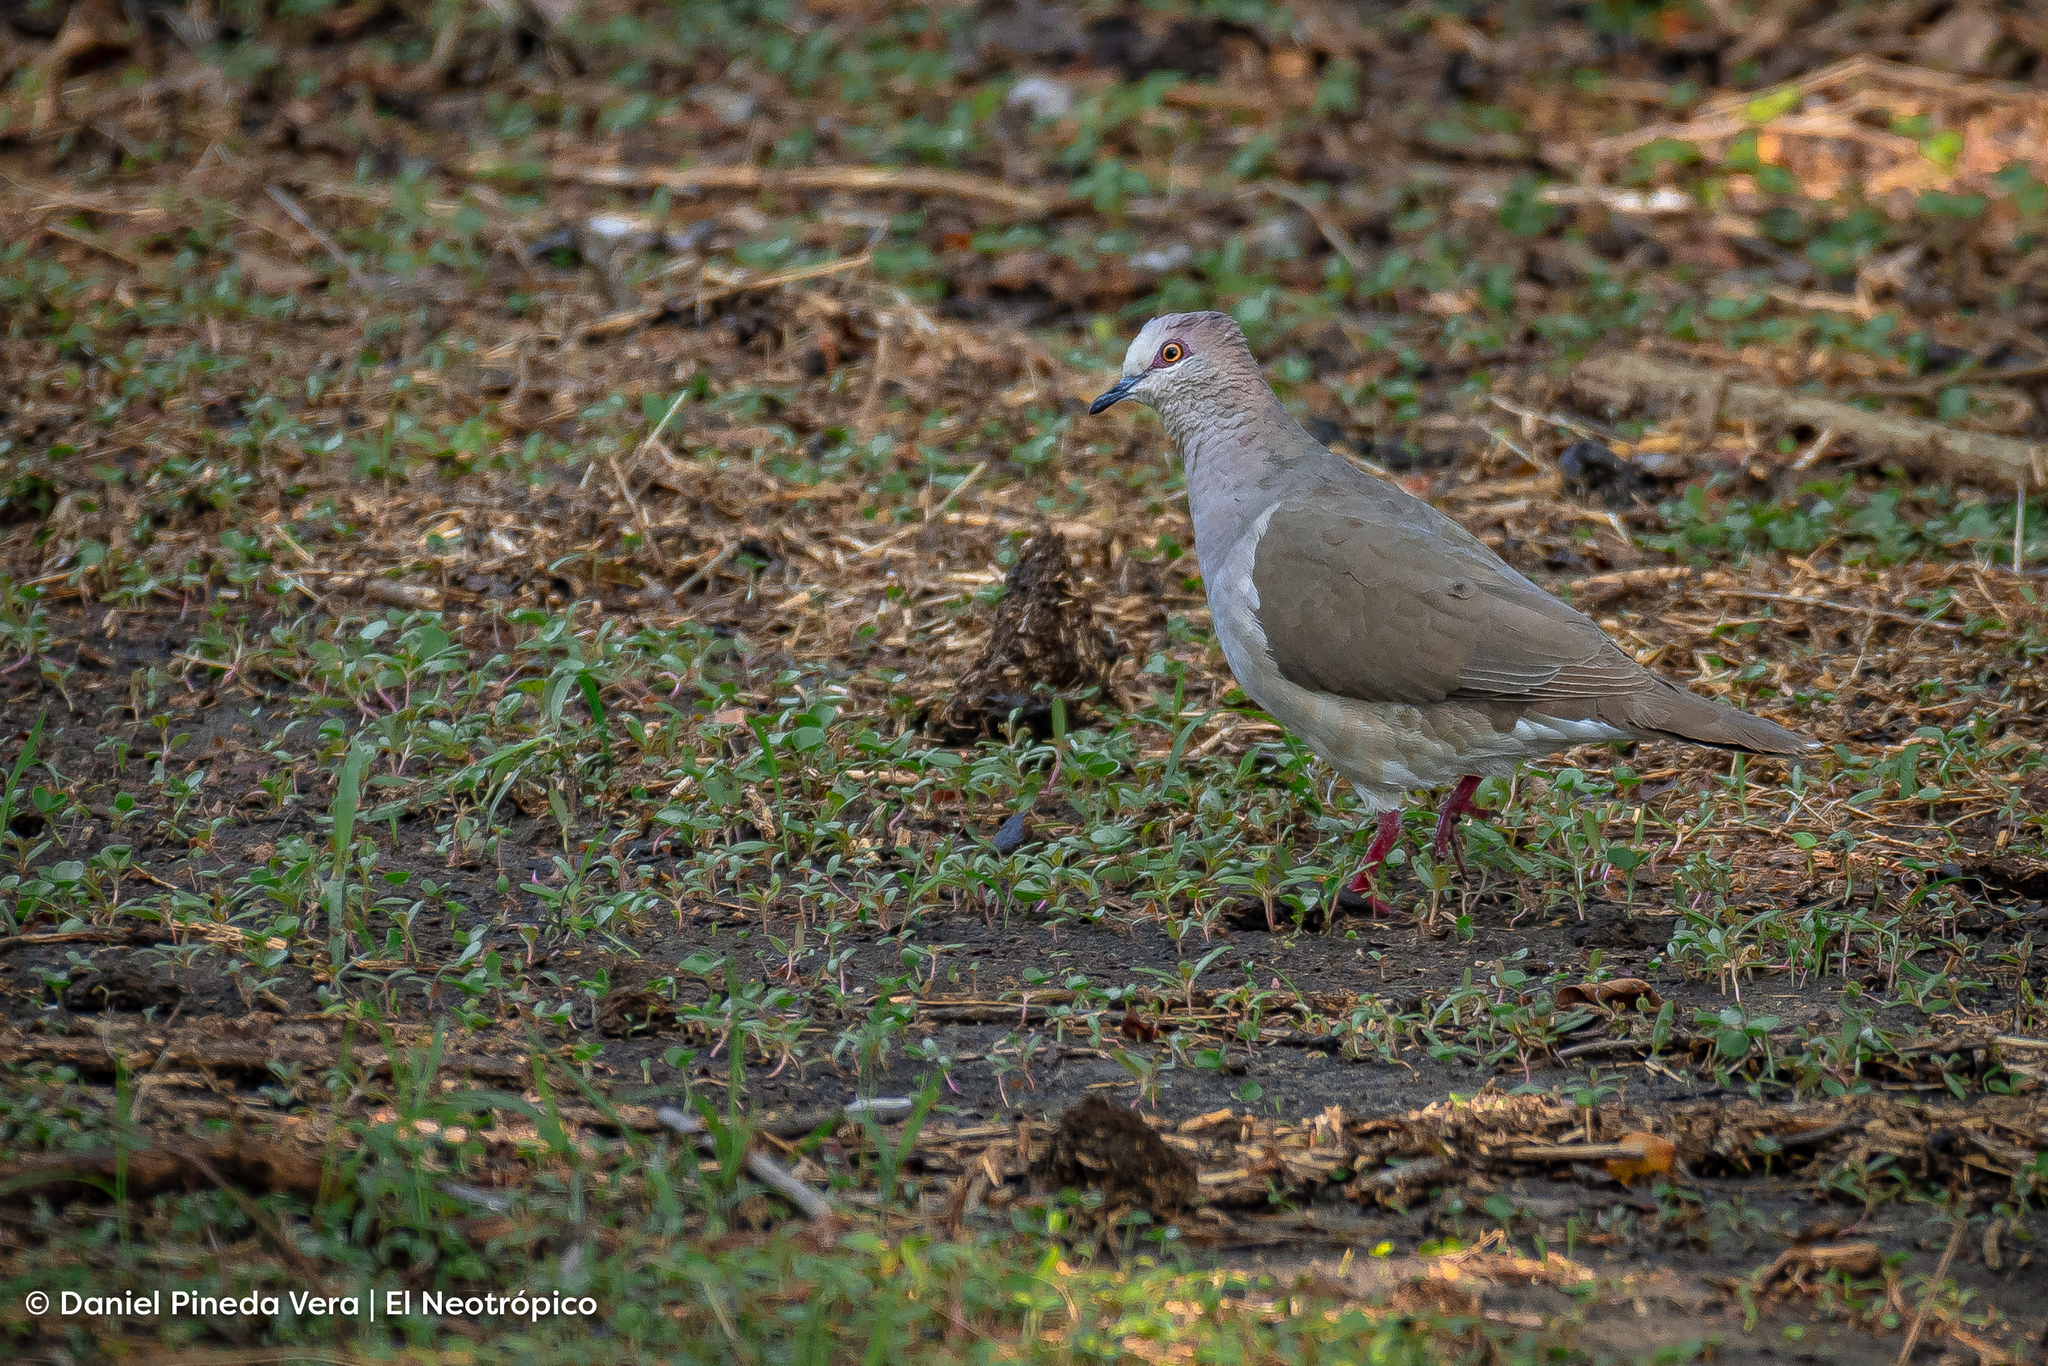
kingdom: Animalia
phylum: Chordata
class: Aves
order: Columbiformes
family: Columbidae
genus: Leptotila
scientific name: Leptotila verreauxi
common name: White-tipped dove
